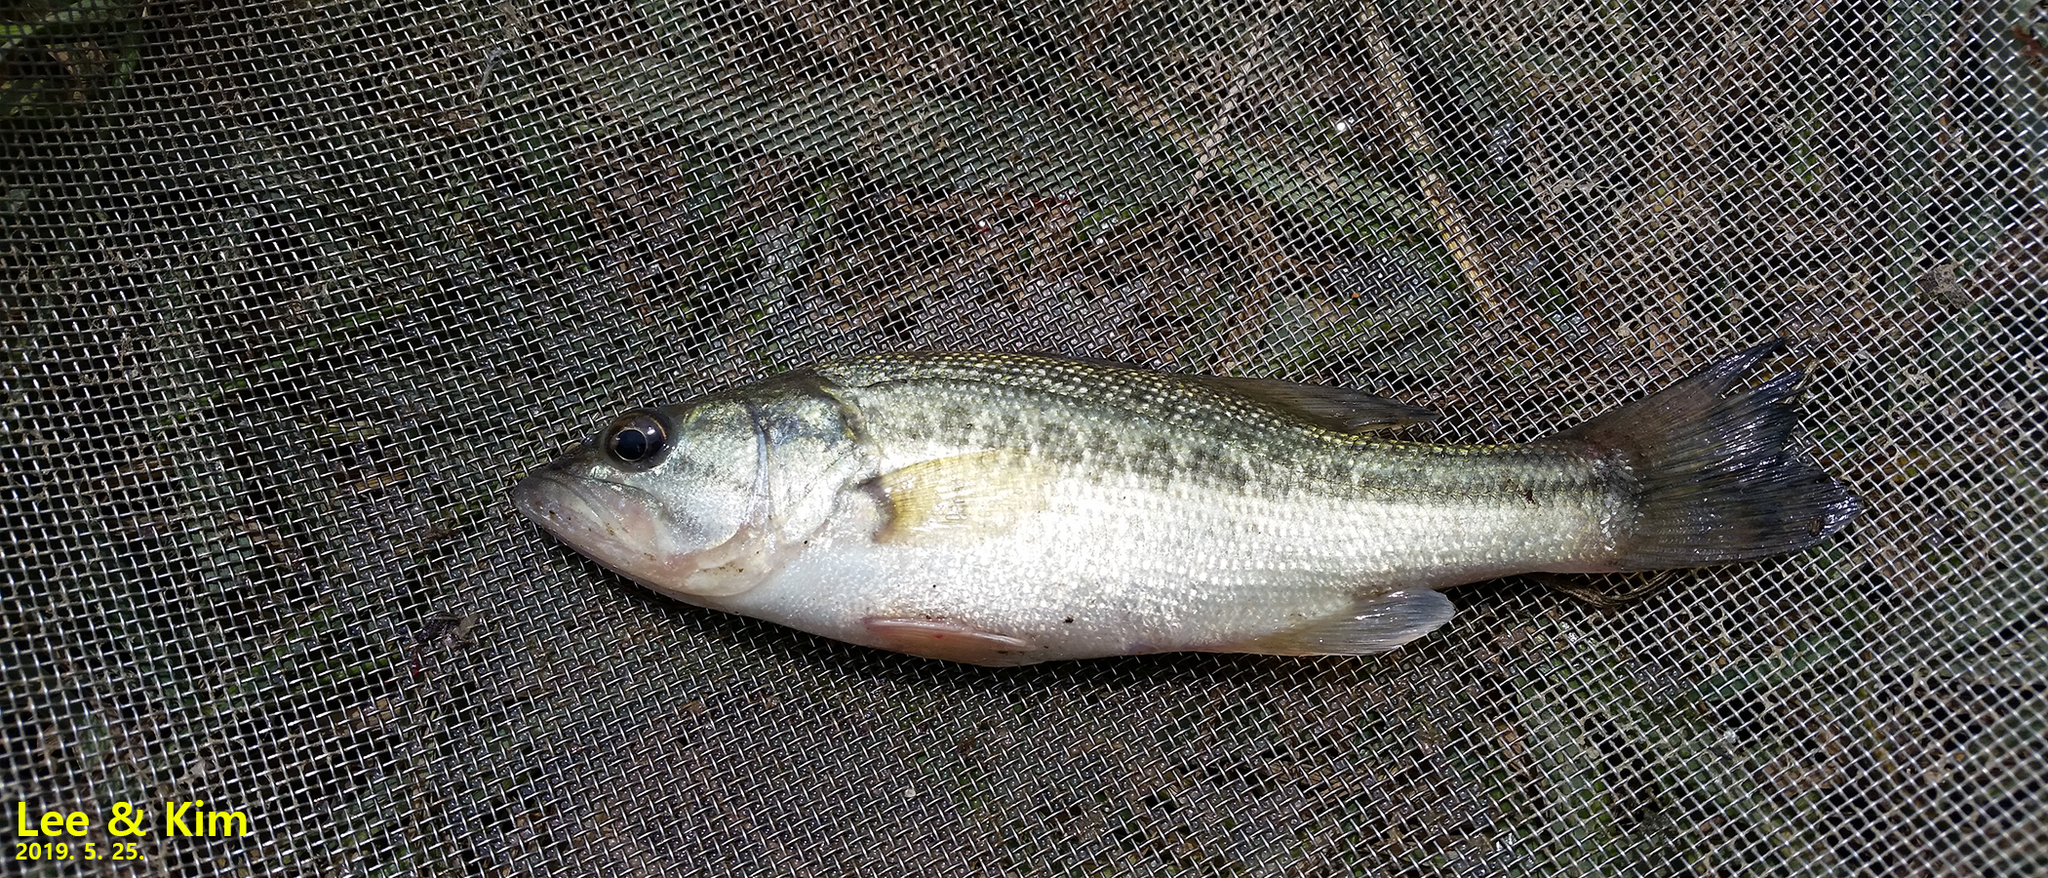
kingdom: Animalia
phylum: Chordata
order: Perciformes
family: Centrarchidae
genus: Micropterus
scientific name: Micropterus
